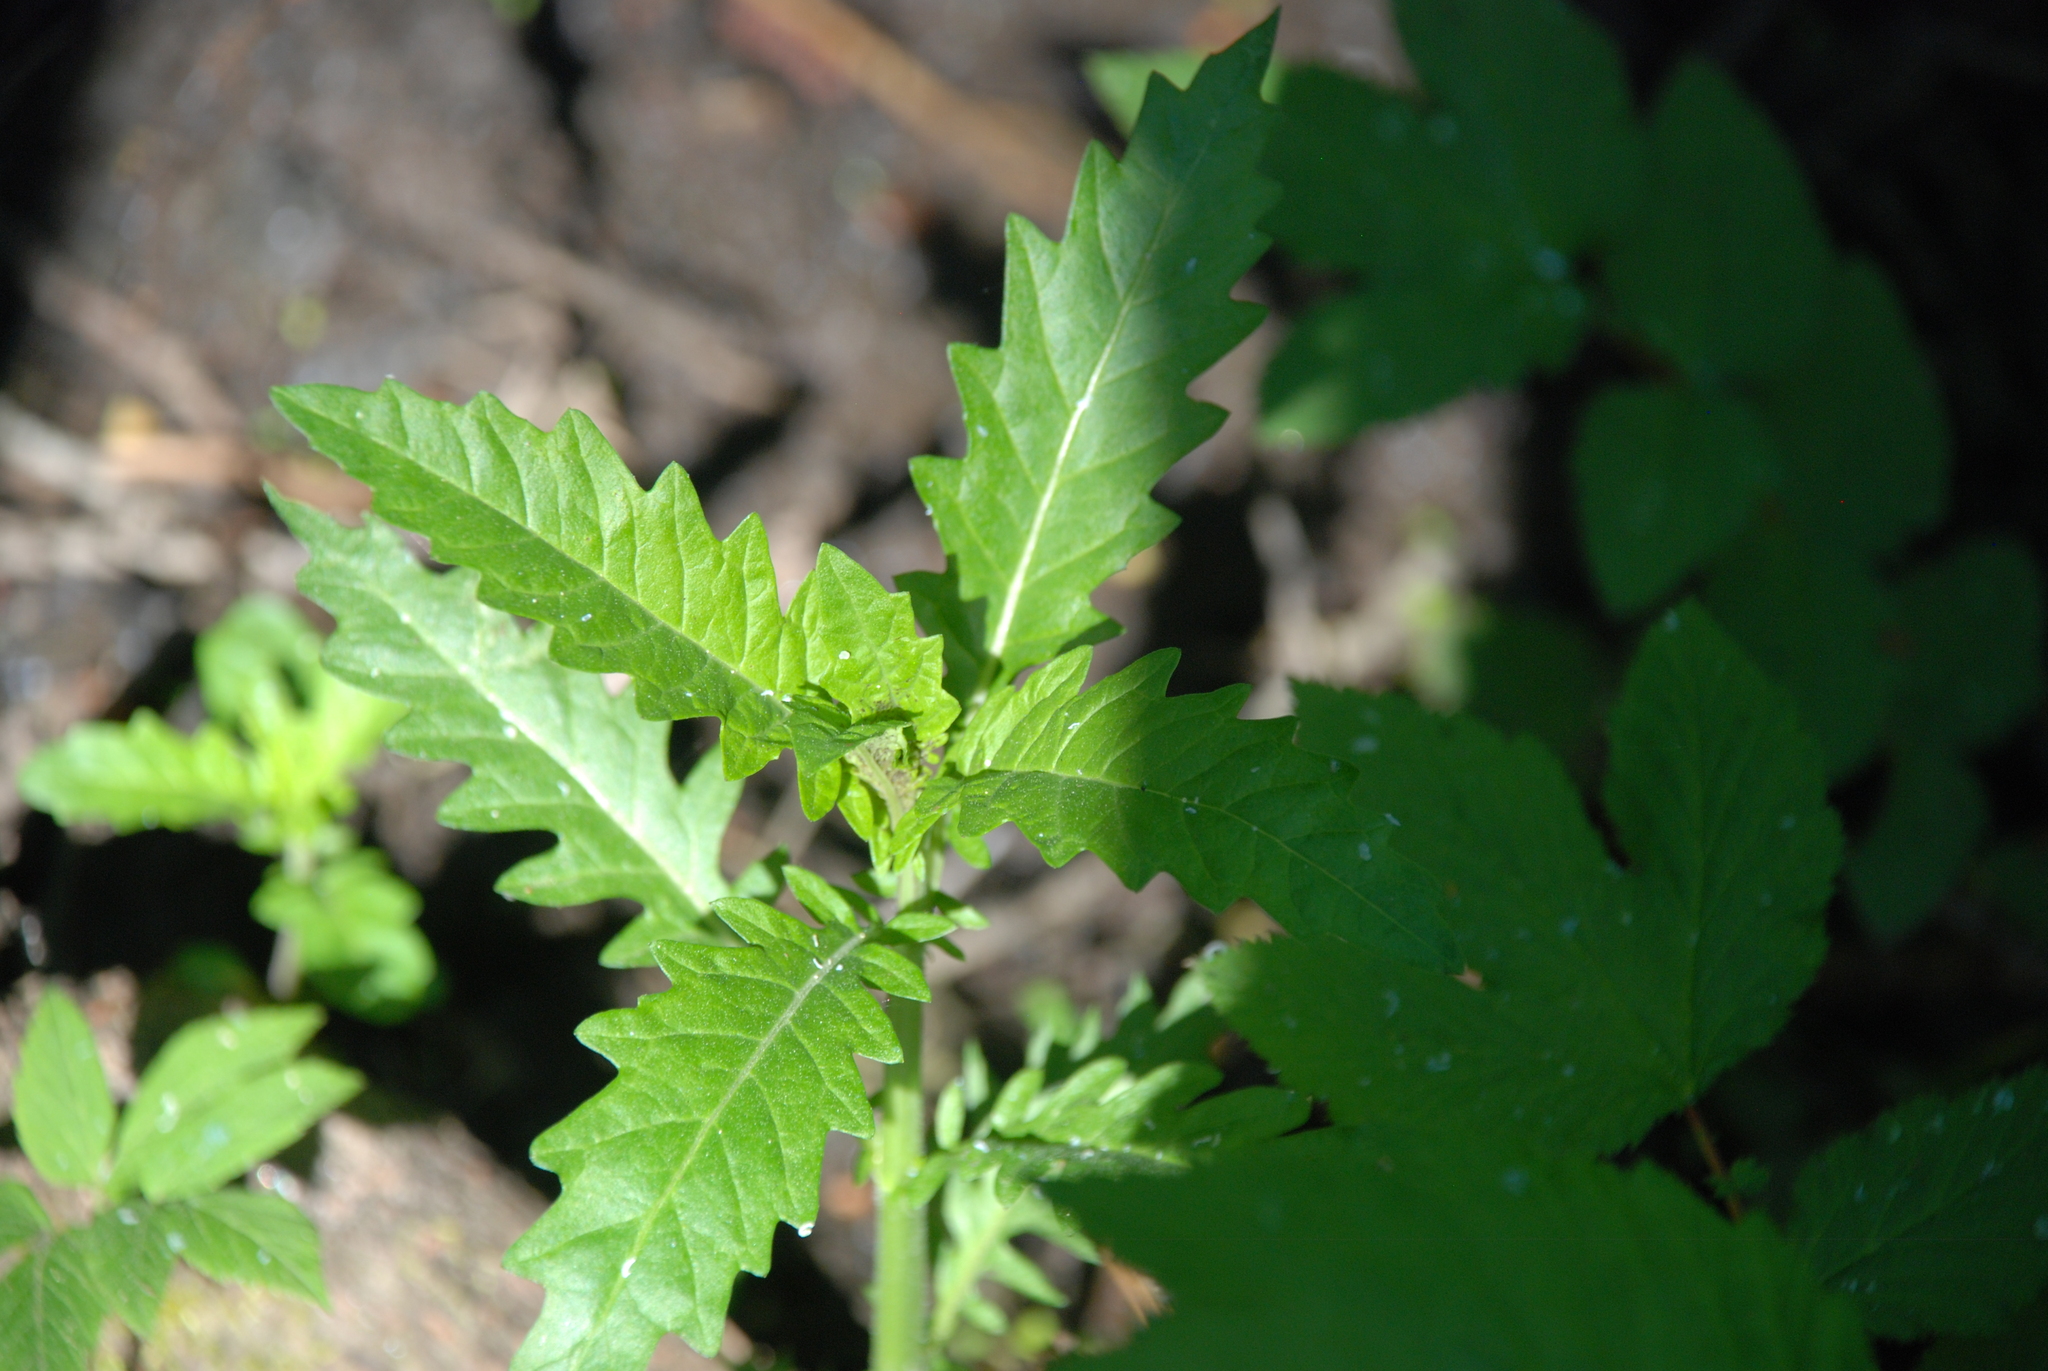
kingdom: Plantae
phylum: Tracheophyta
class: Magnoliopsida
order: Lamiales
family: Lamiaceae
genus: Lycopus
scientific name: Lycopus europaeus
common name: European bugleweed
